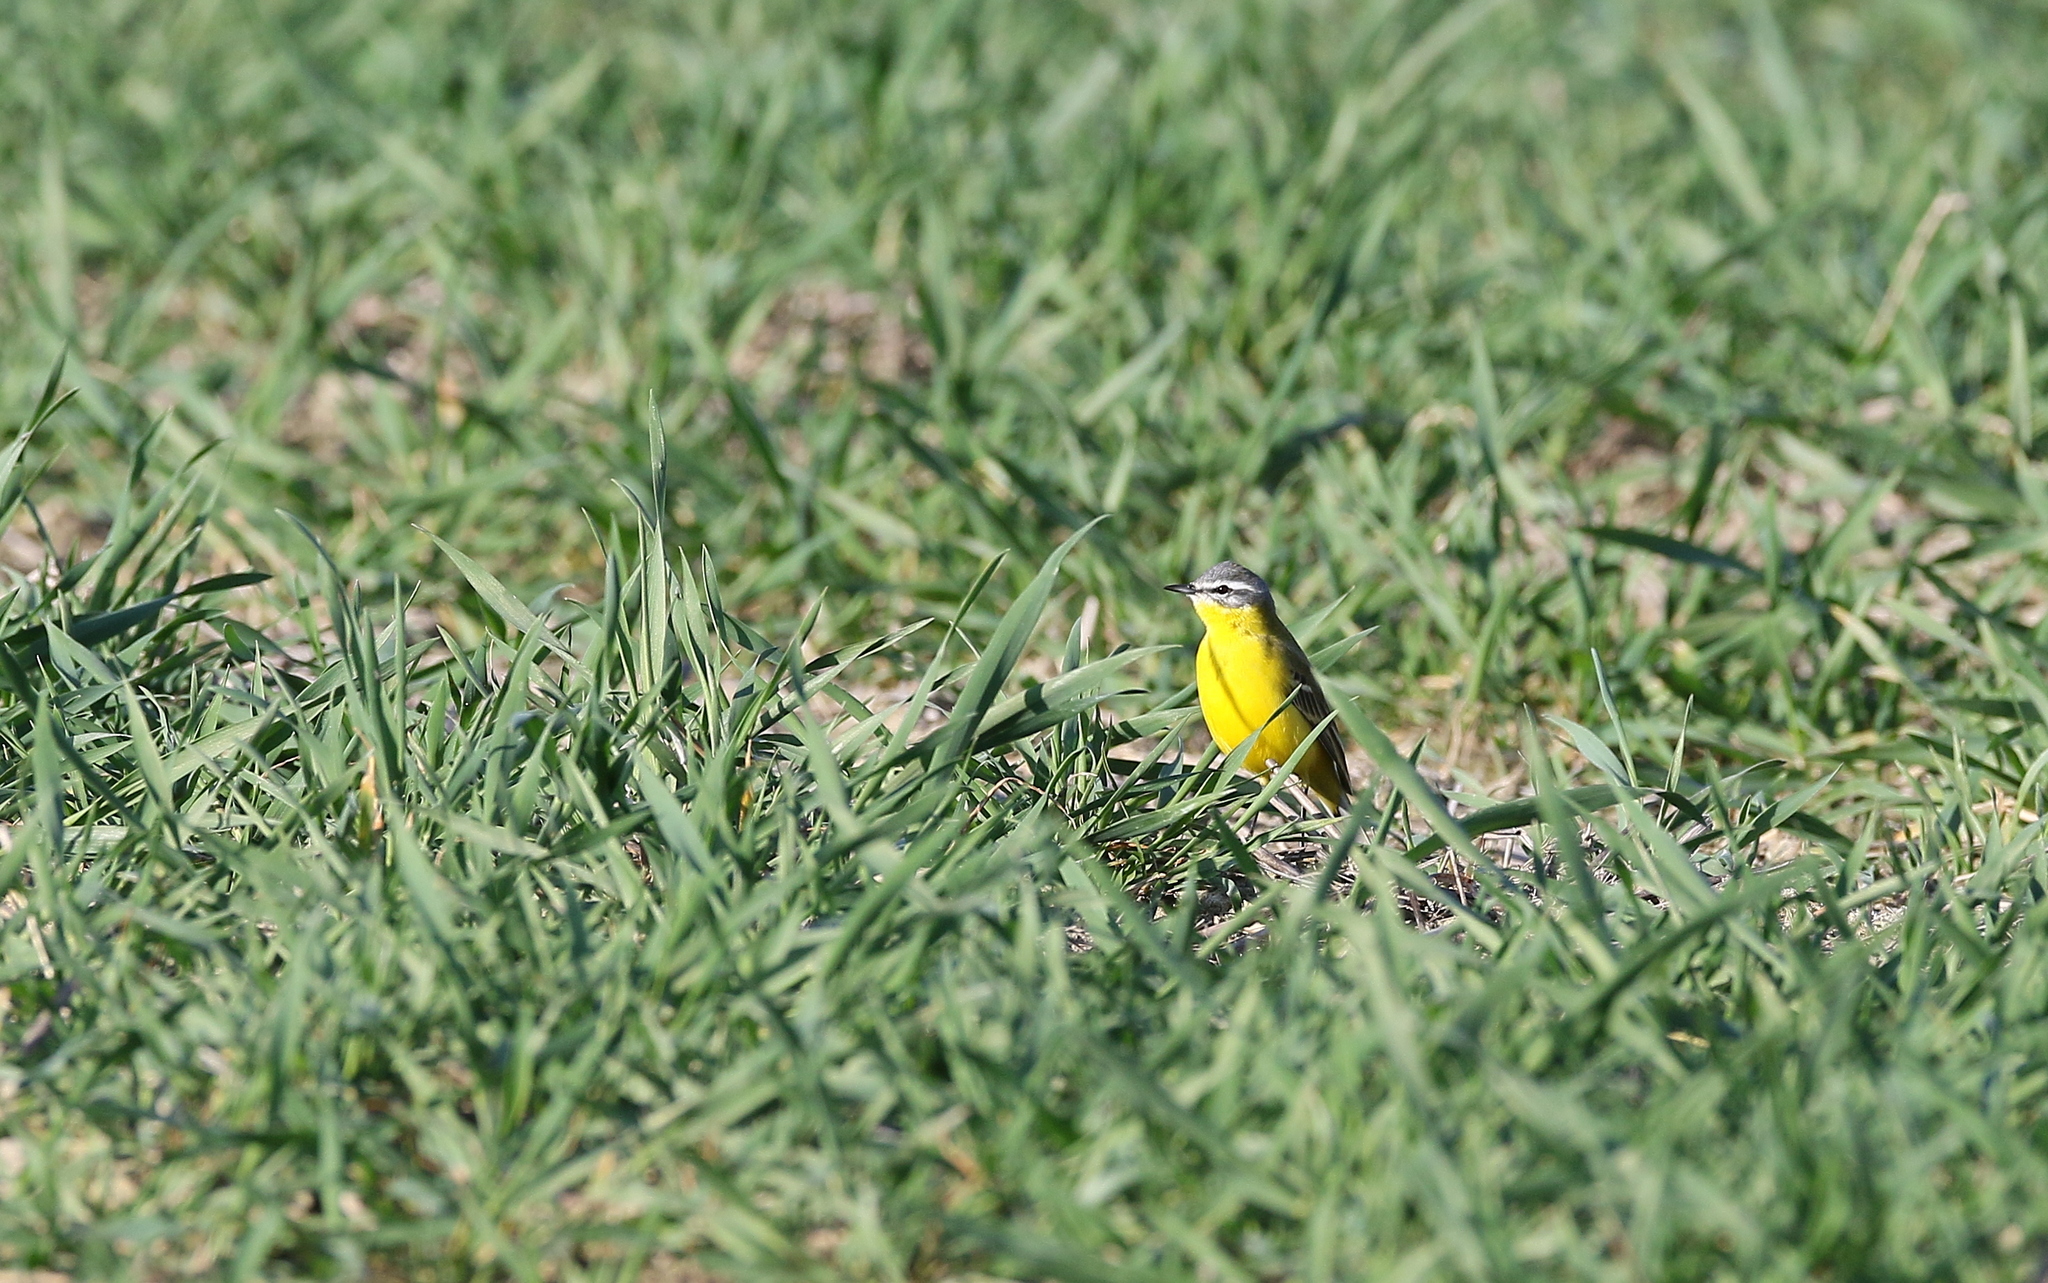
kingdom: Animalia
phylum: Chordata
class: Aves
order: Passeriformes
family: Motacillidae
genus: Motacilla
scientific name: Motacilla flava
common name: Western yellow wagtail
